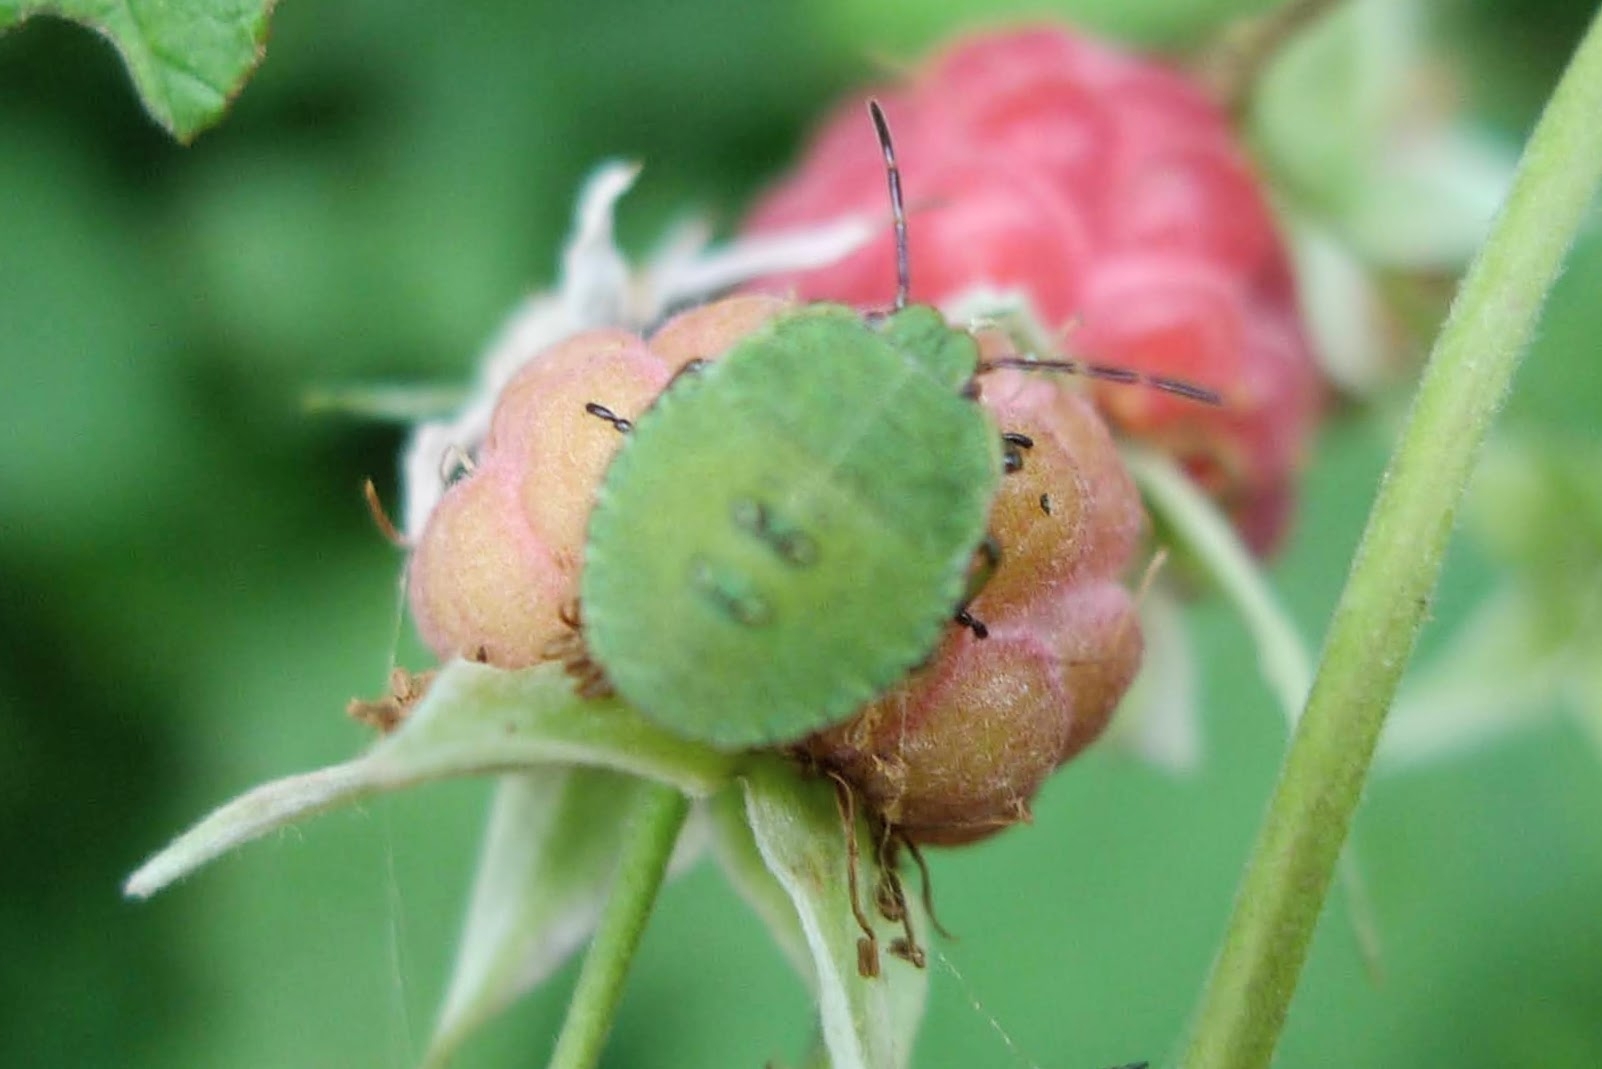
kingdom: Animalia
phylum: Arthropoda
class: Insecta
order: Hemiptera
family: Pentatomidae
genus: Palomena
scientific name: Palomena prasina
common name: Green shieldbug
